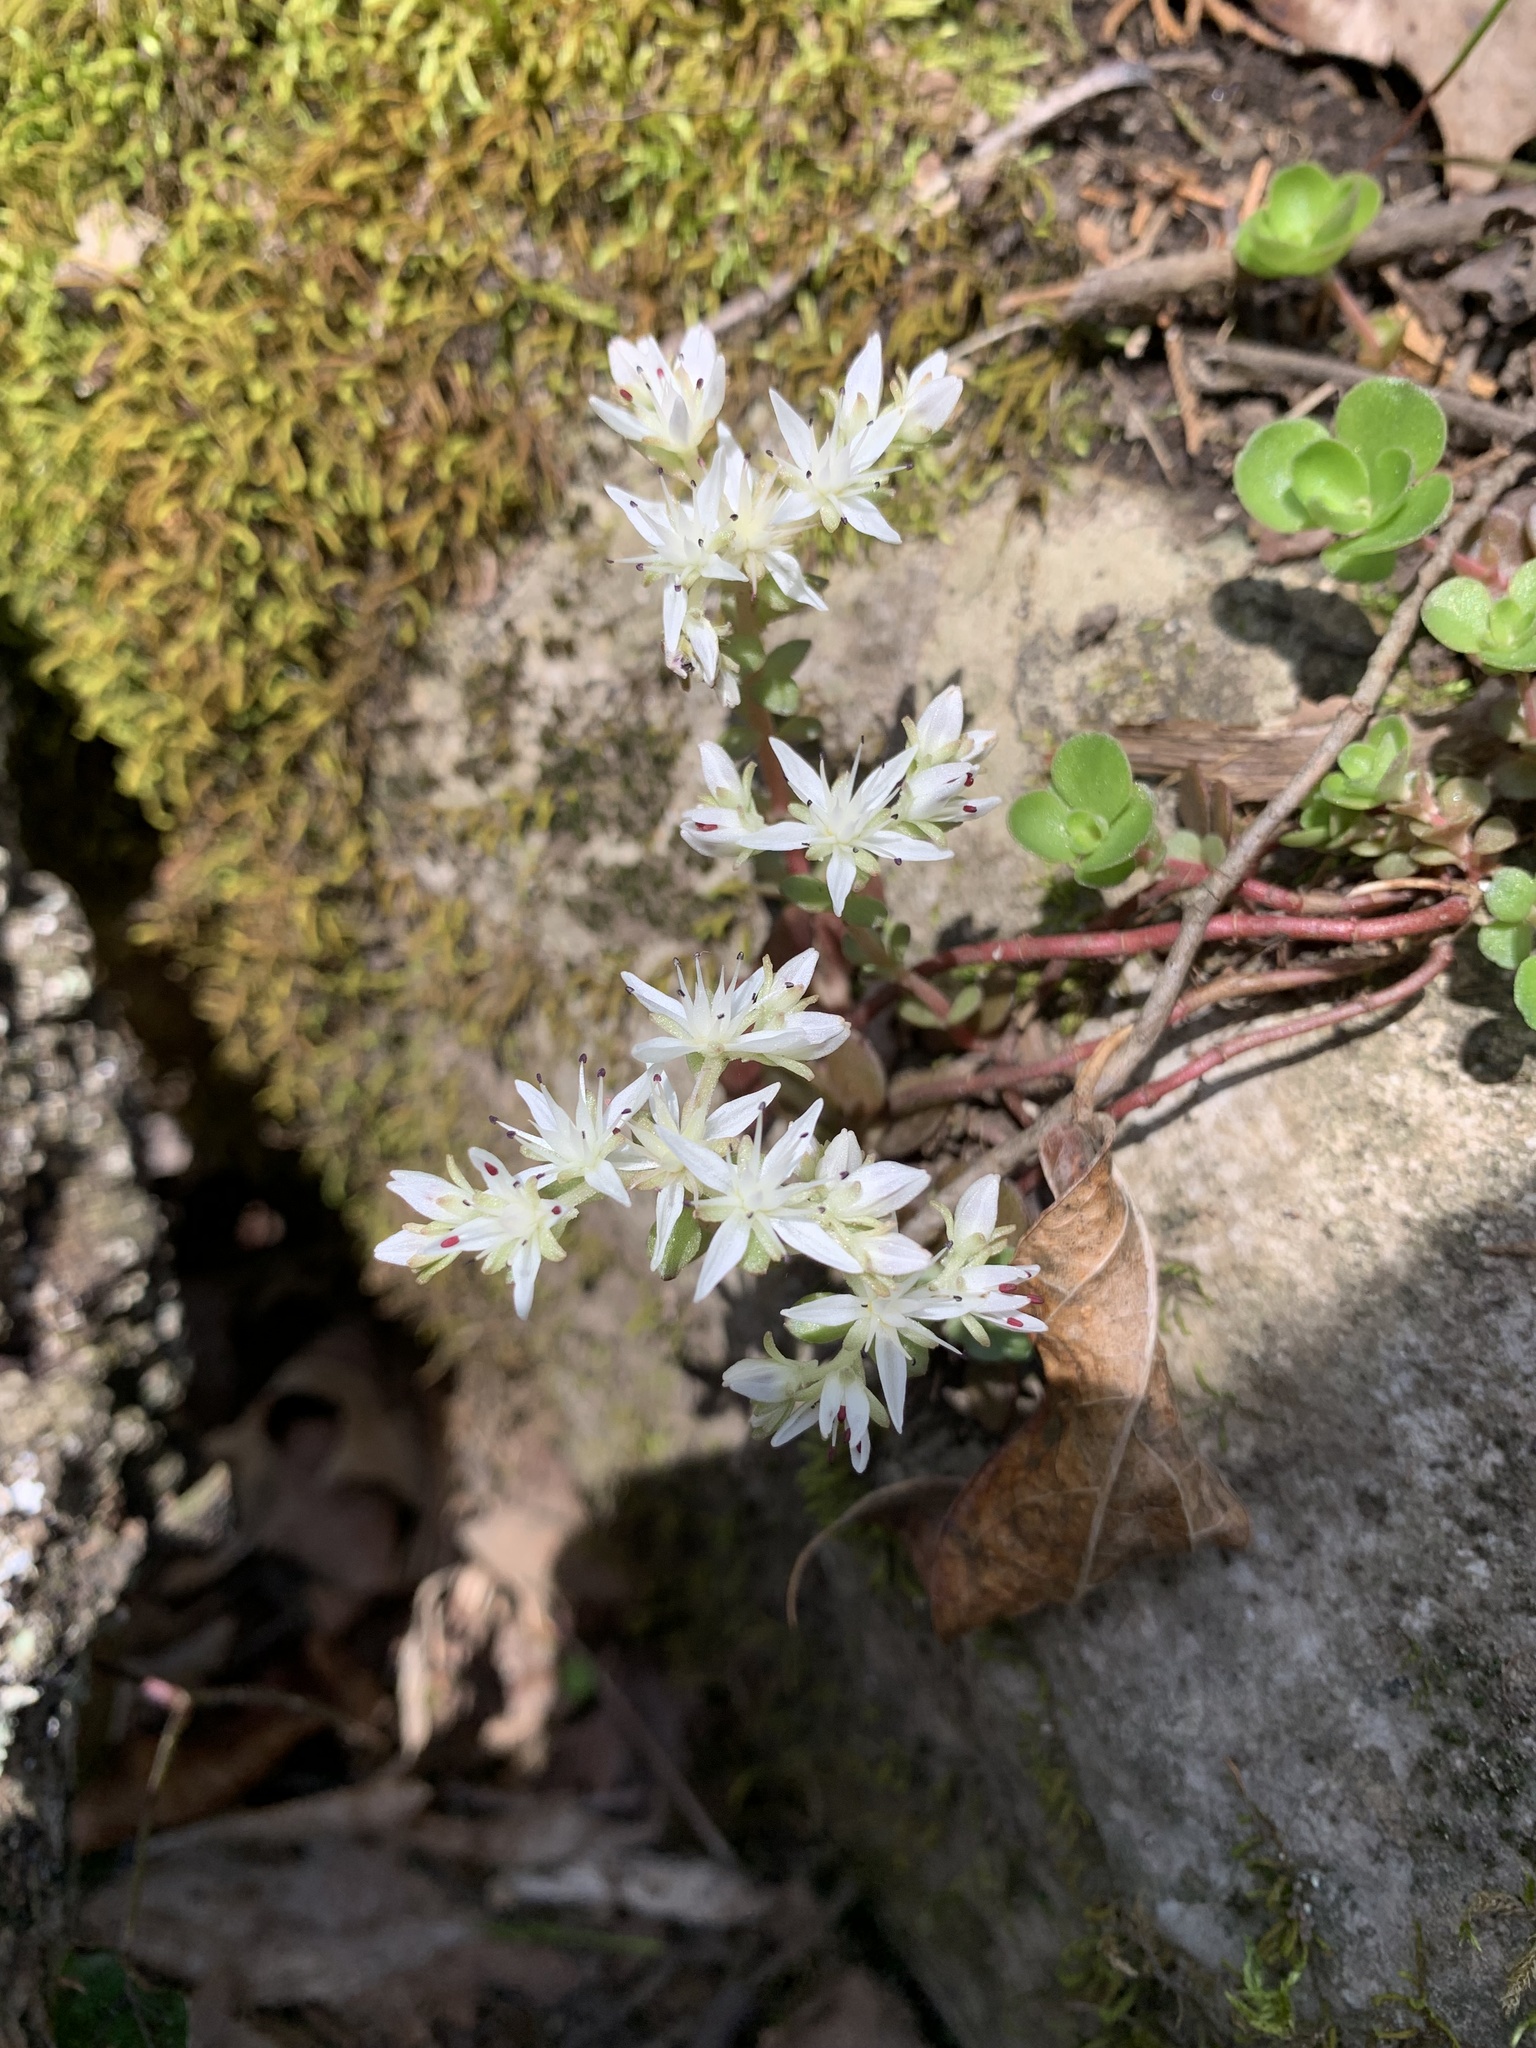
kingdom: Plantae
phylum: Tracheophyta
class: Magnoliopsida
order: Saxifragales
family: Crassulaceae
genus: Sedum
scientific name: Sedum ternatum
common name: Wild stonecrop
